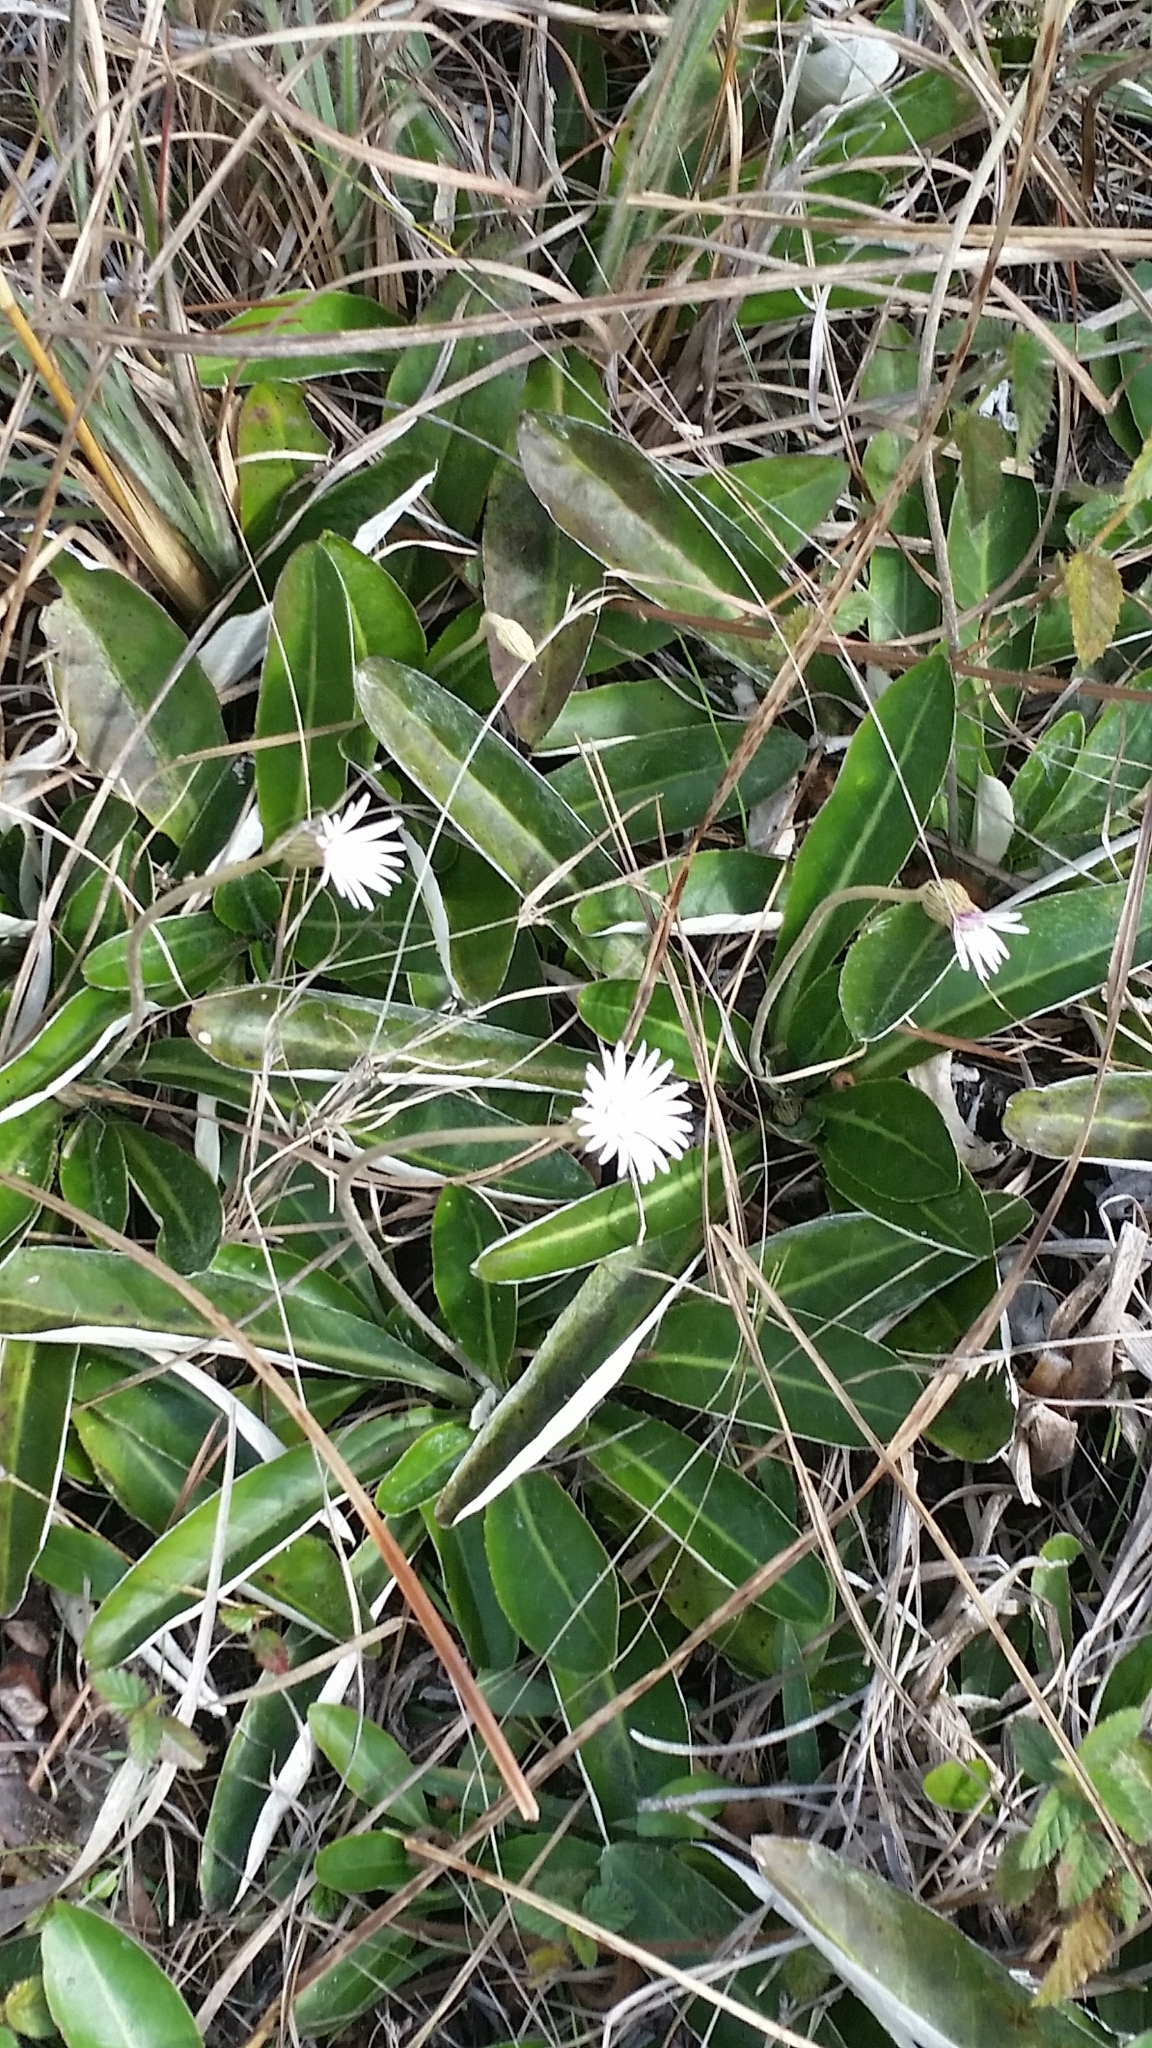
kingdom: Plantae
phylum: Tracheophyta
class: Magnoliopsida
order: Asterales
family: Asteraceae
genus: Chaptalia
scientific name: Chaptalia tomentosa
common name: Woolly sunbonnet
